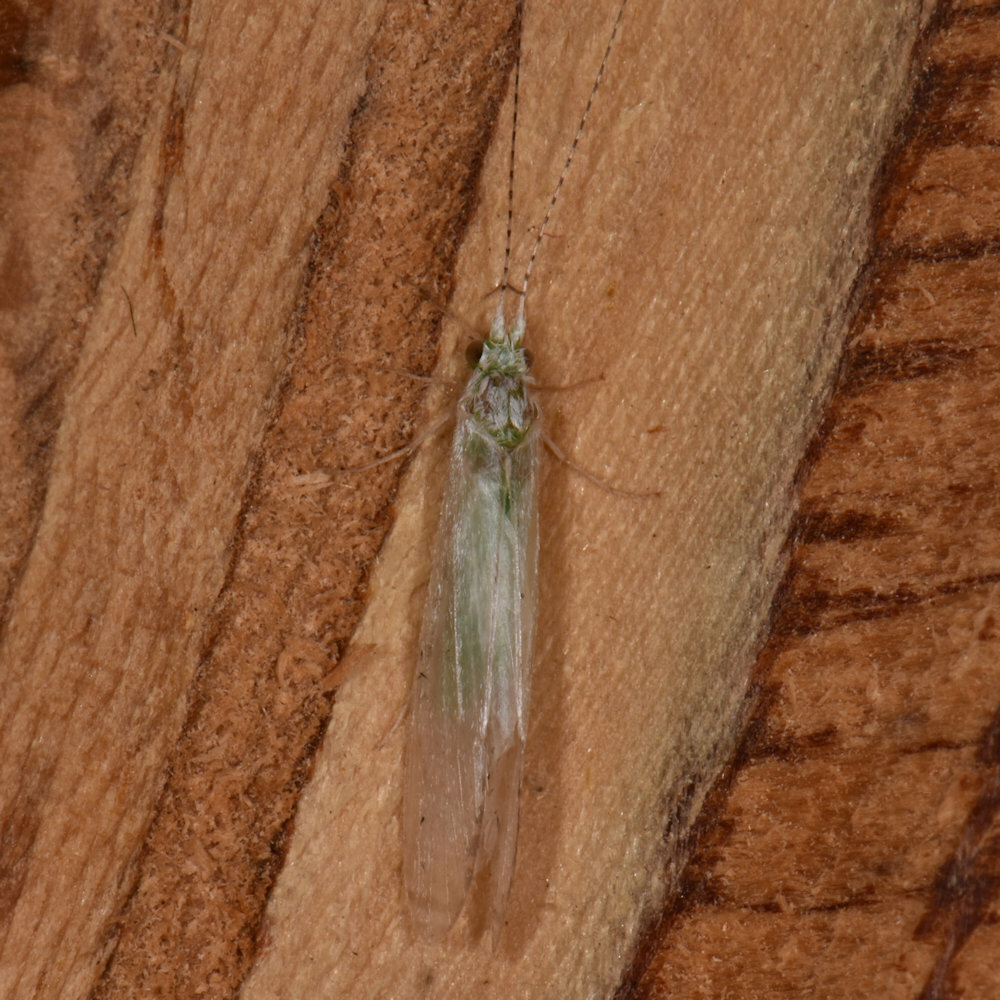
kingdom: Animalia
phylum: Arthropoda
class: Insecta
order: Trichoptera
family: Leptoceridae
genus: Nectopsyche
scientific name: Nectopsyche albida
